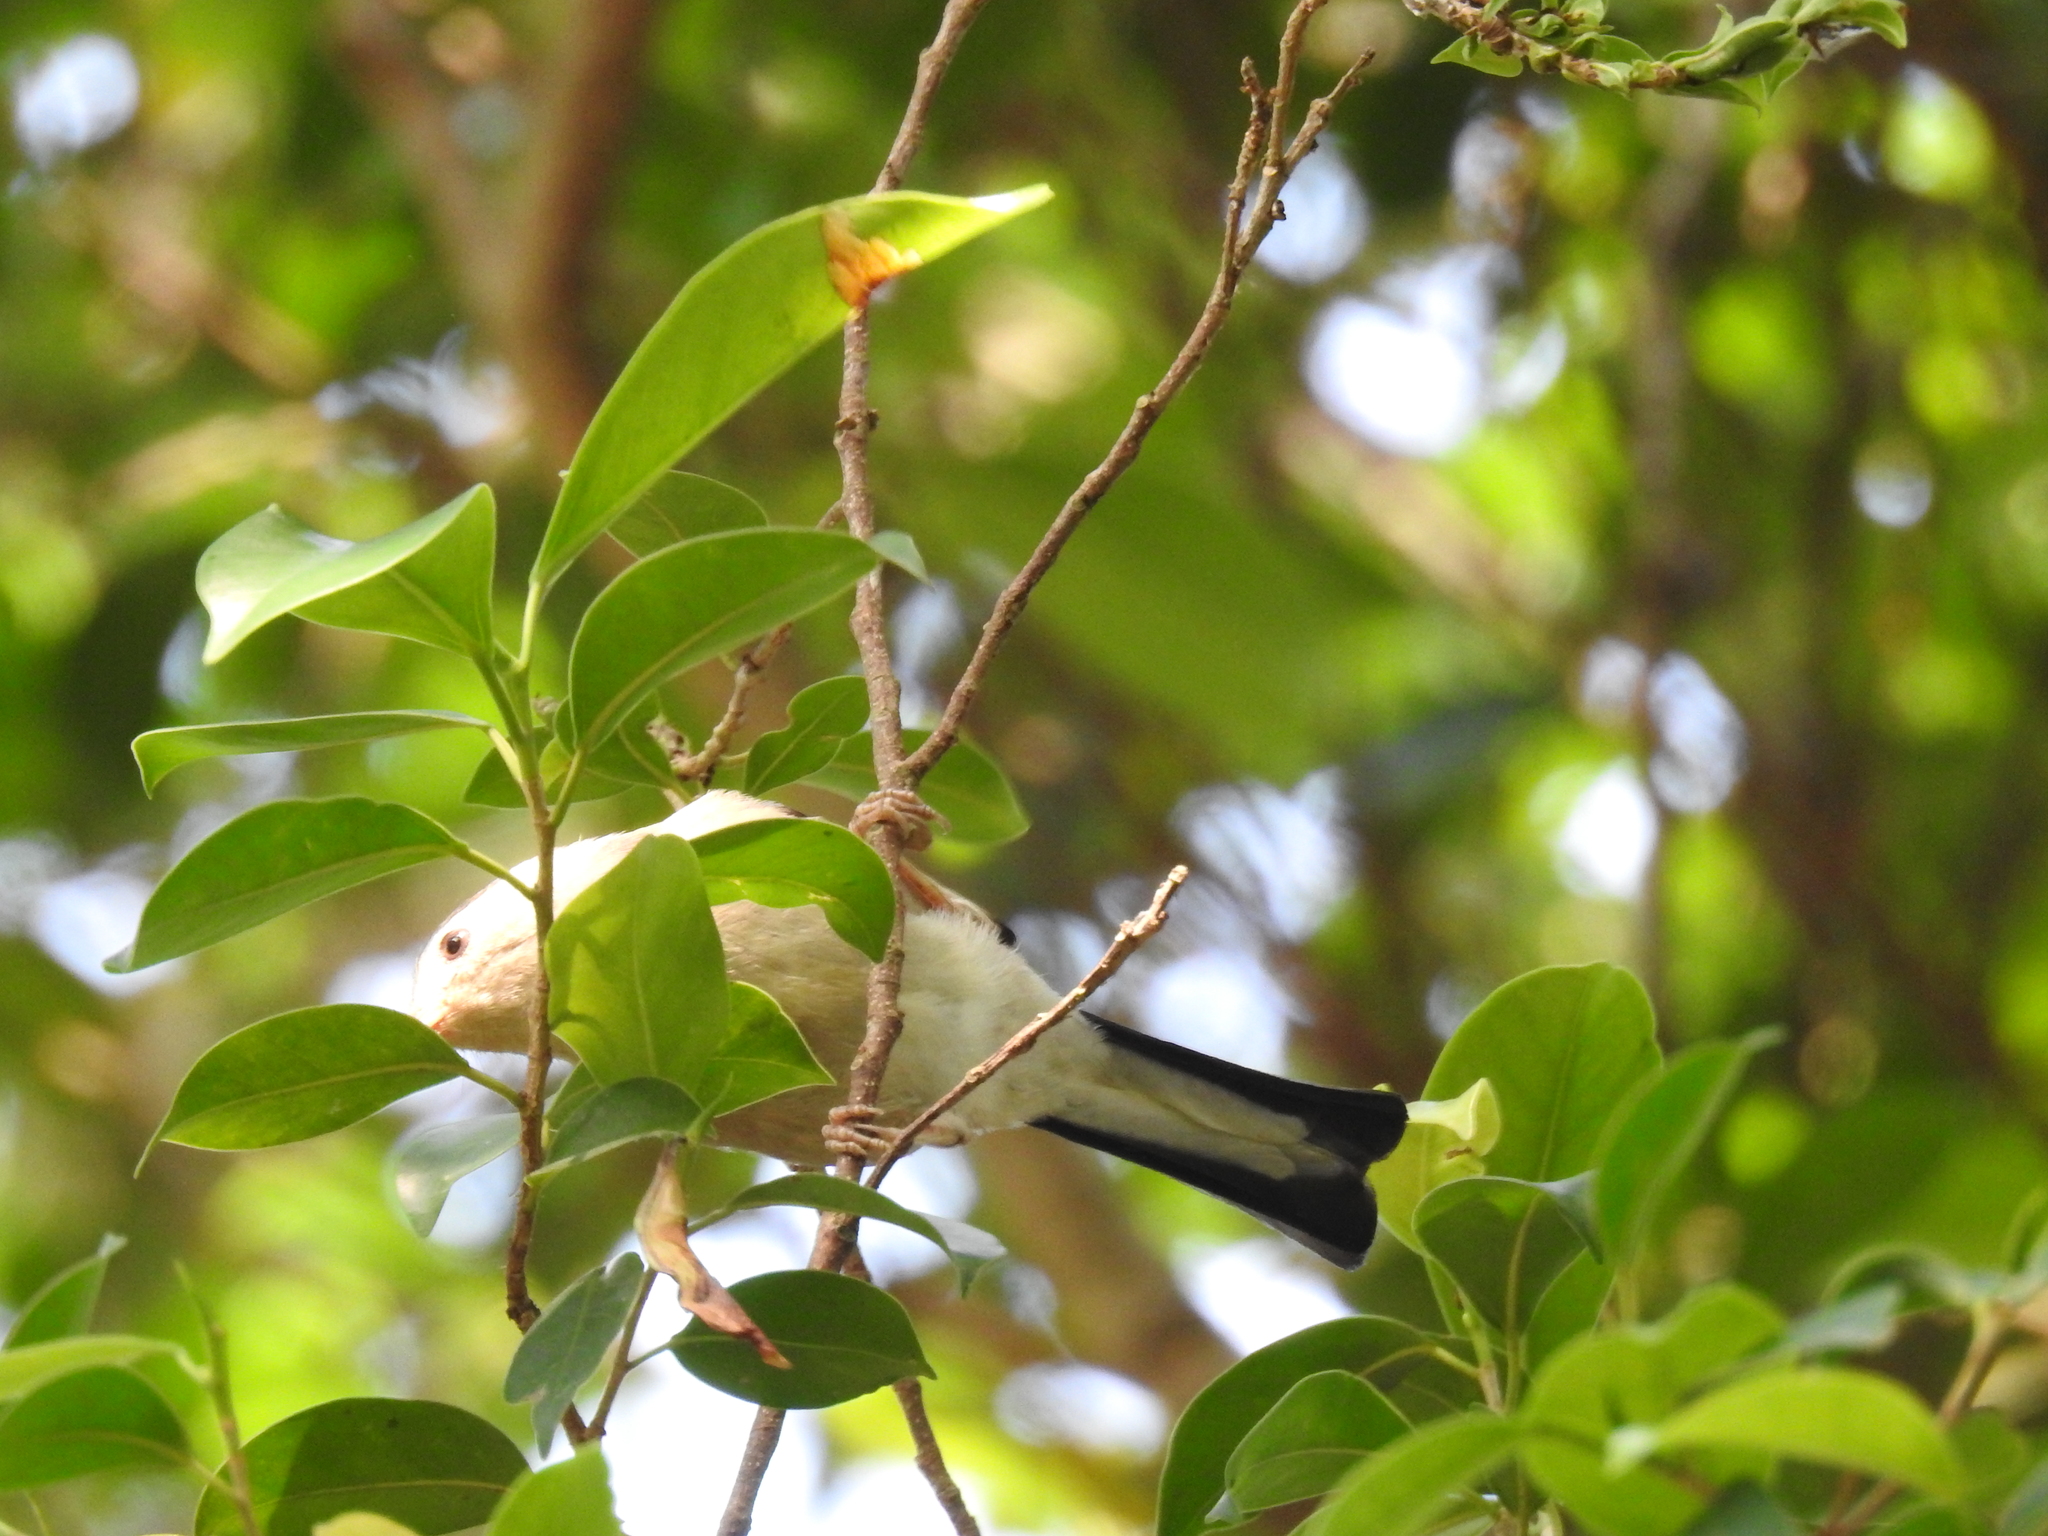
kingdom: Animalia
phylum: Chordata
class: Aves
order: Passeriformes
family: Leiothrichidae
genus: Minla
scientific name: Minla cyanouroptera
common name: Blue-winged minla
